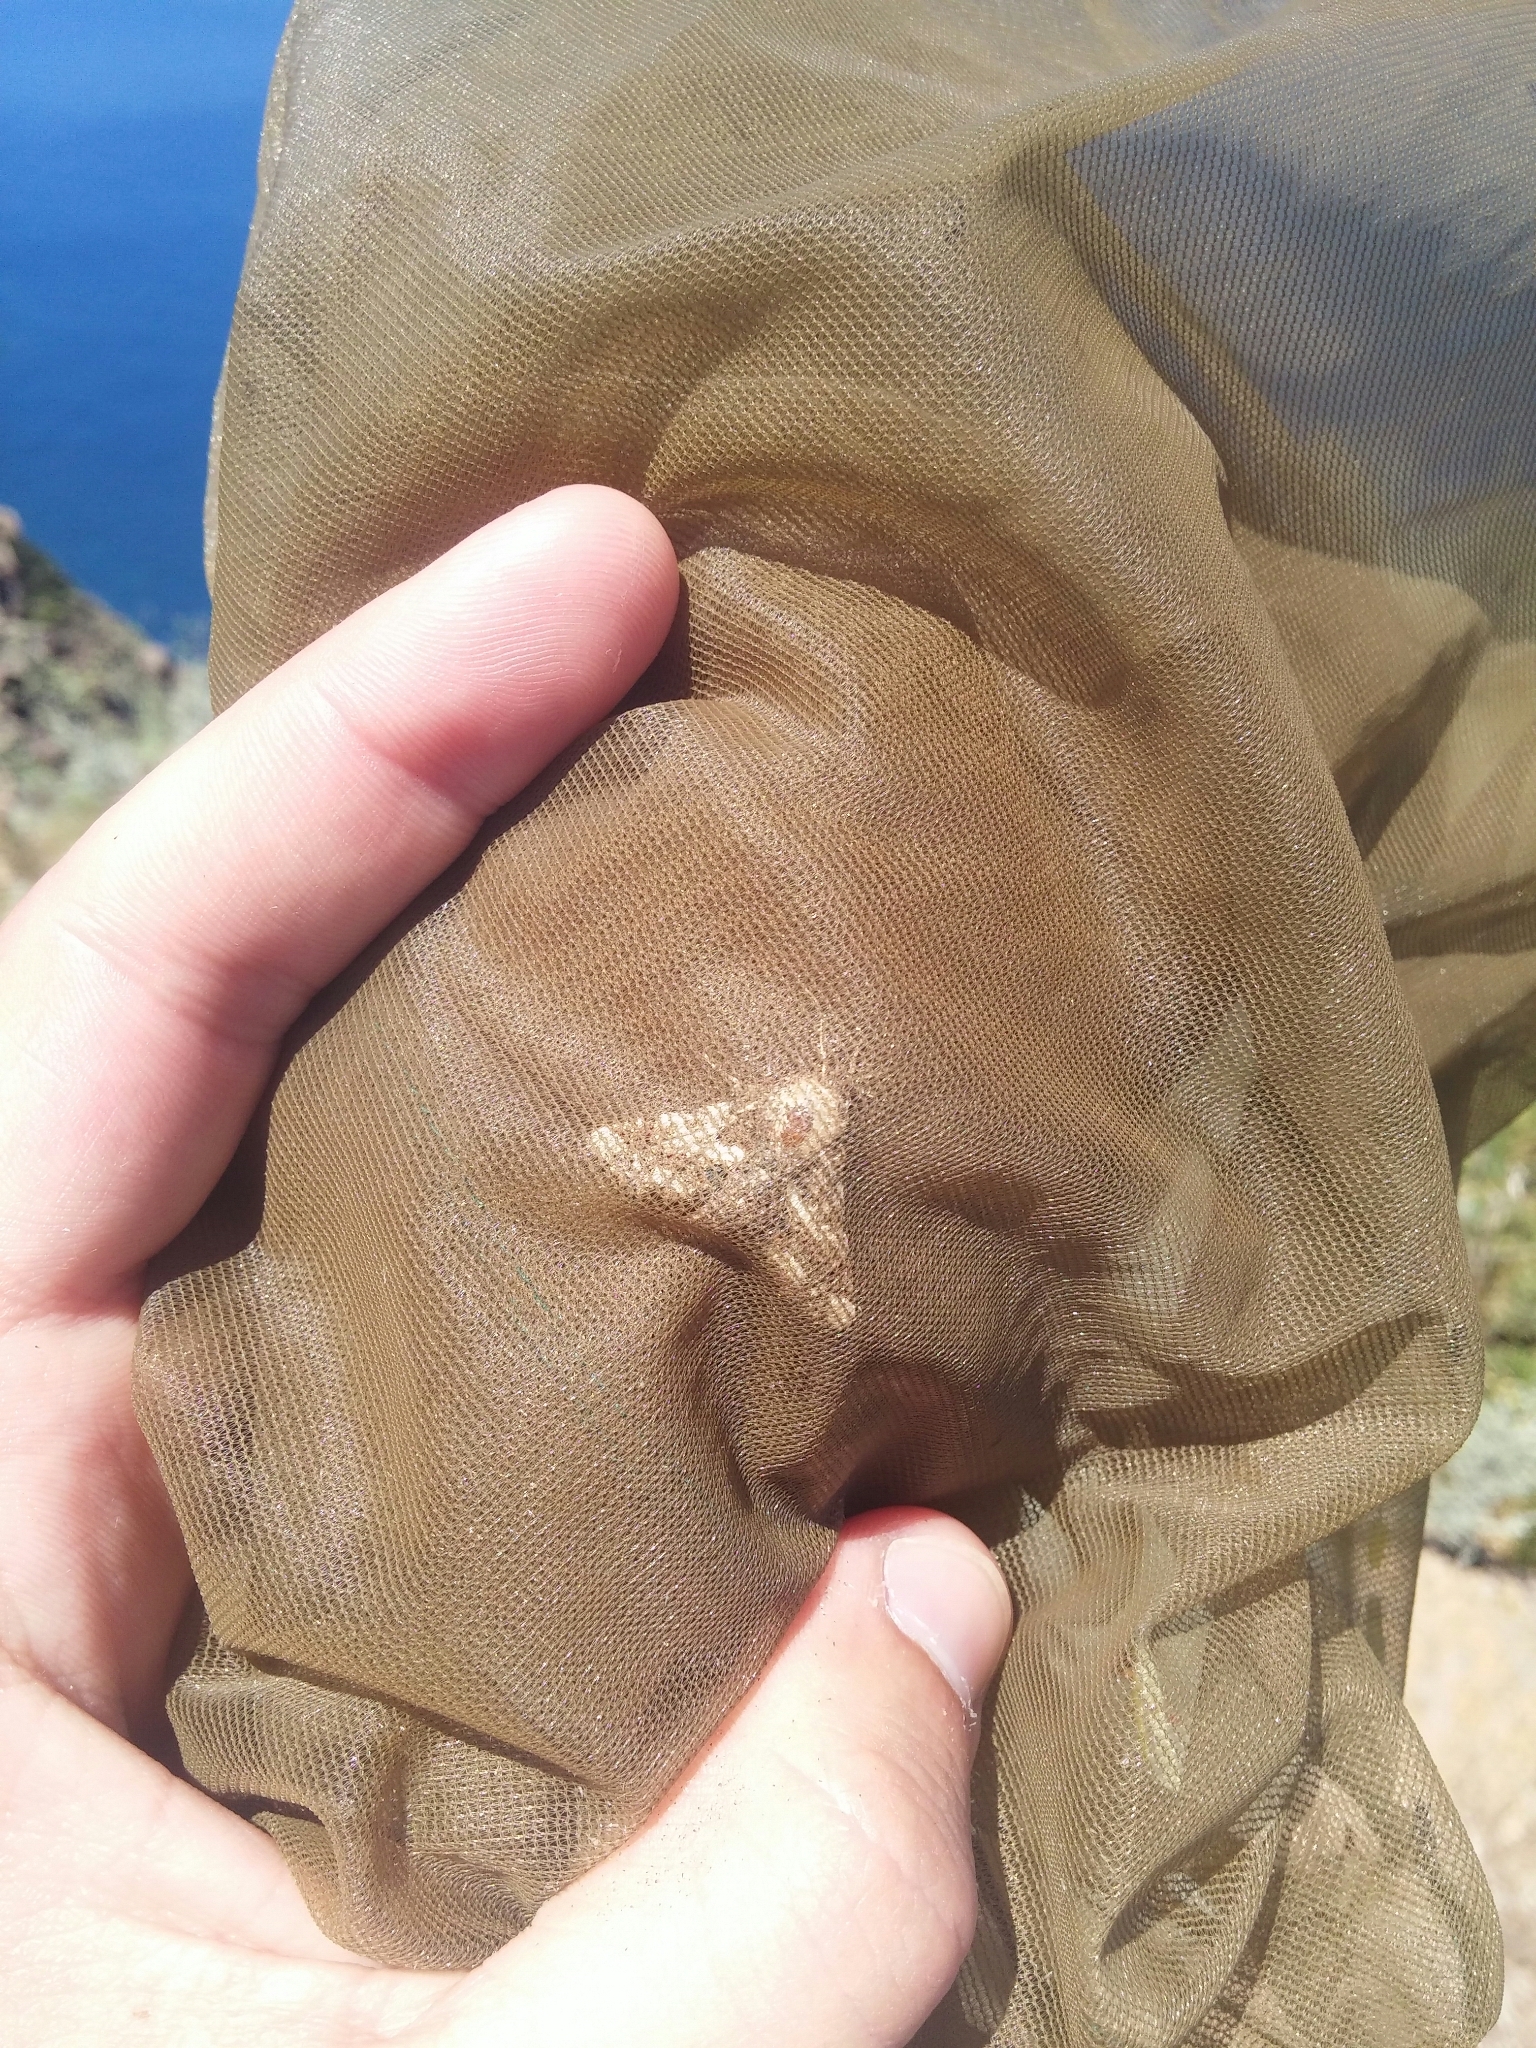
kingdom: Animalia
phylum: Arthropoda
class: Insecta
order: Lepidoptera
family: Euteliidae
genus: Eutelia
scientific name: Eutelia adulatrix
